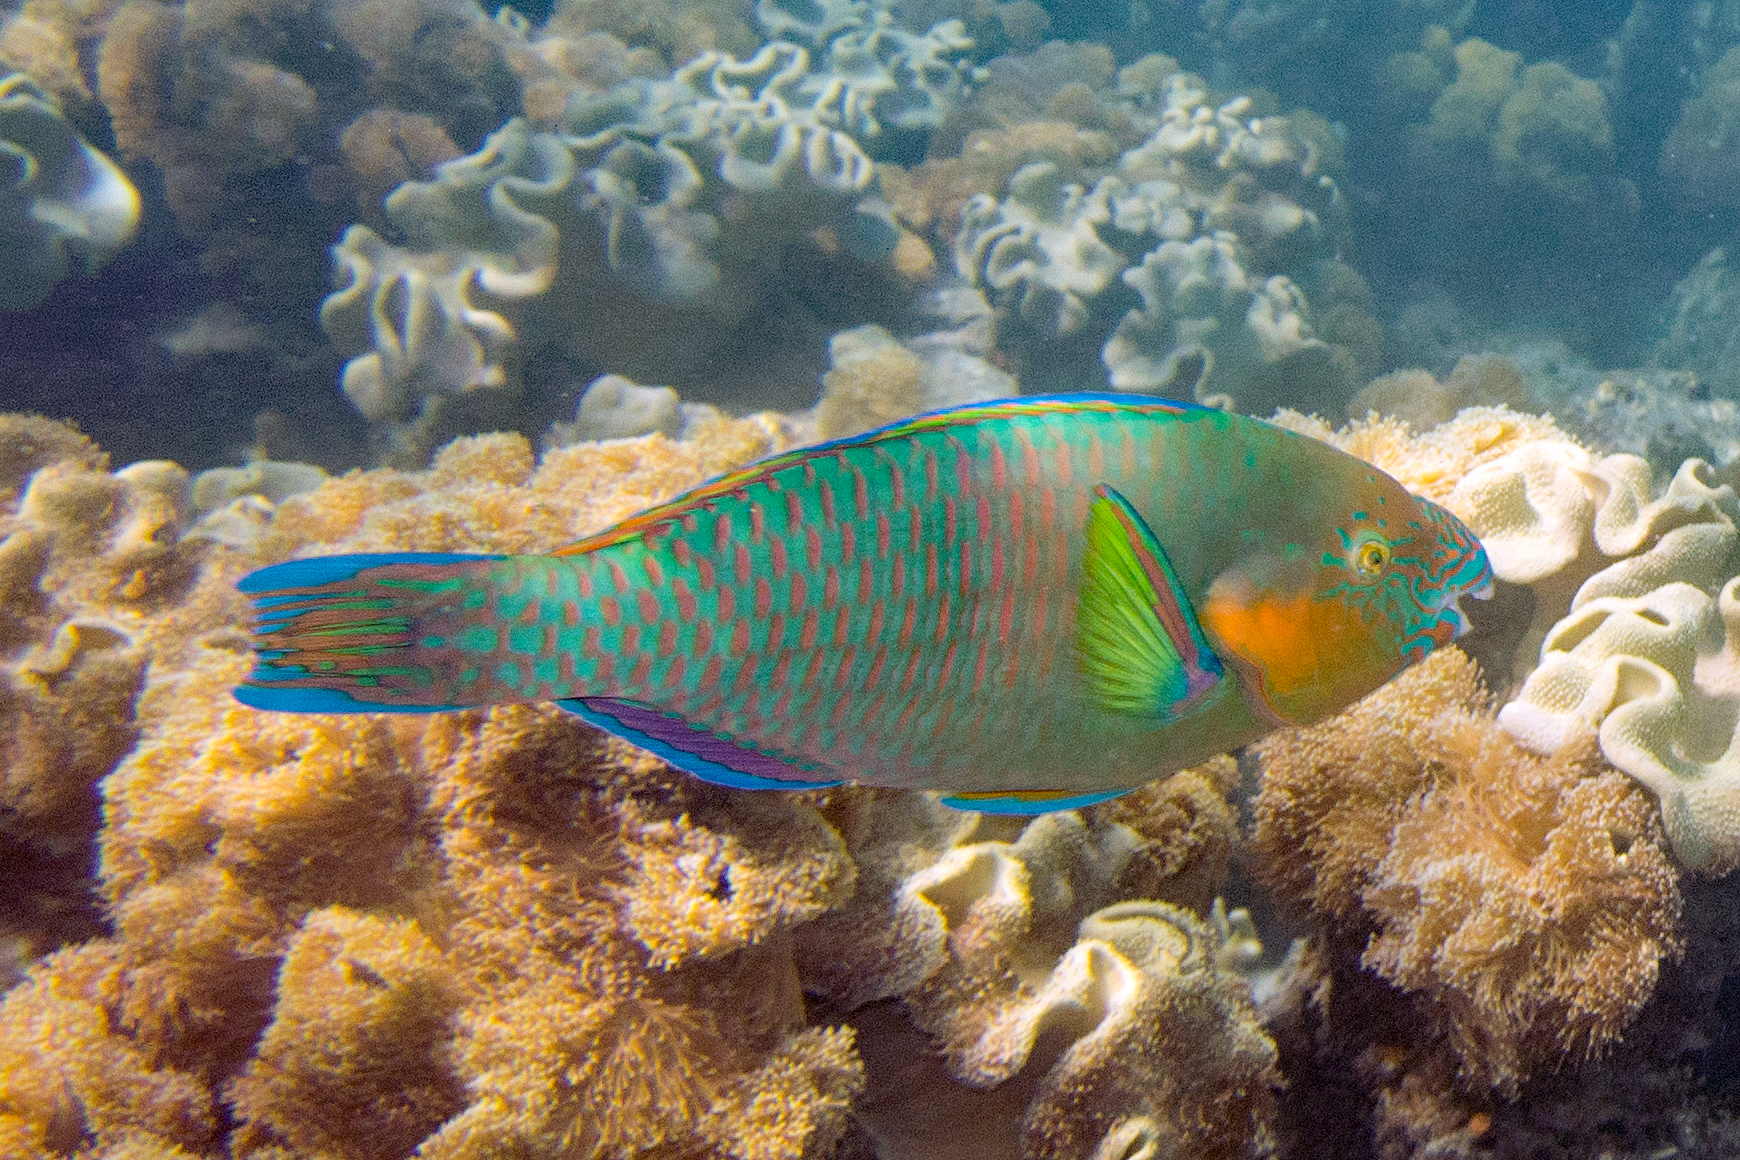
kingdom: Animalia
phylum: Chordata
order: Perciformes
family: Scaridae
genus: Scarus
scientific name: Scarus rivulatus
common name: Surf parrotfish
